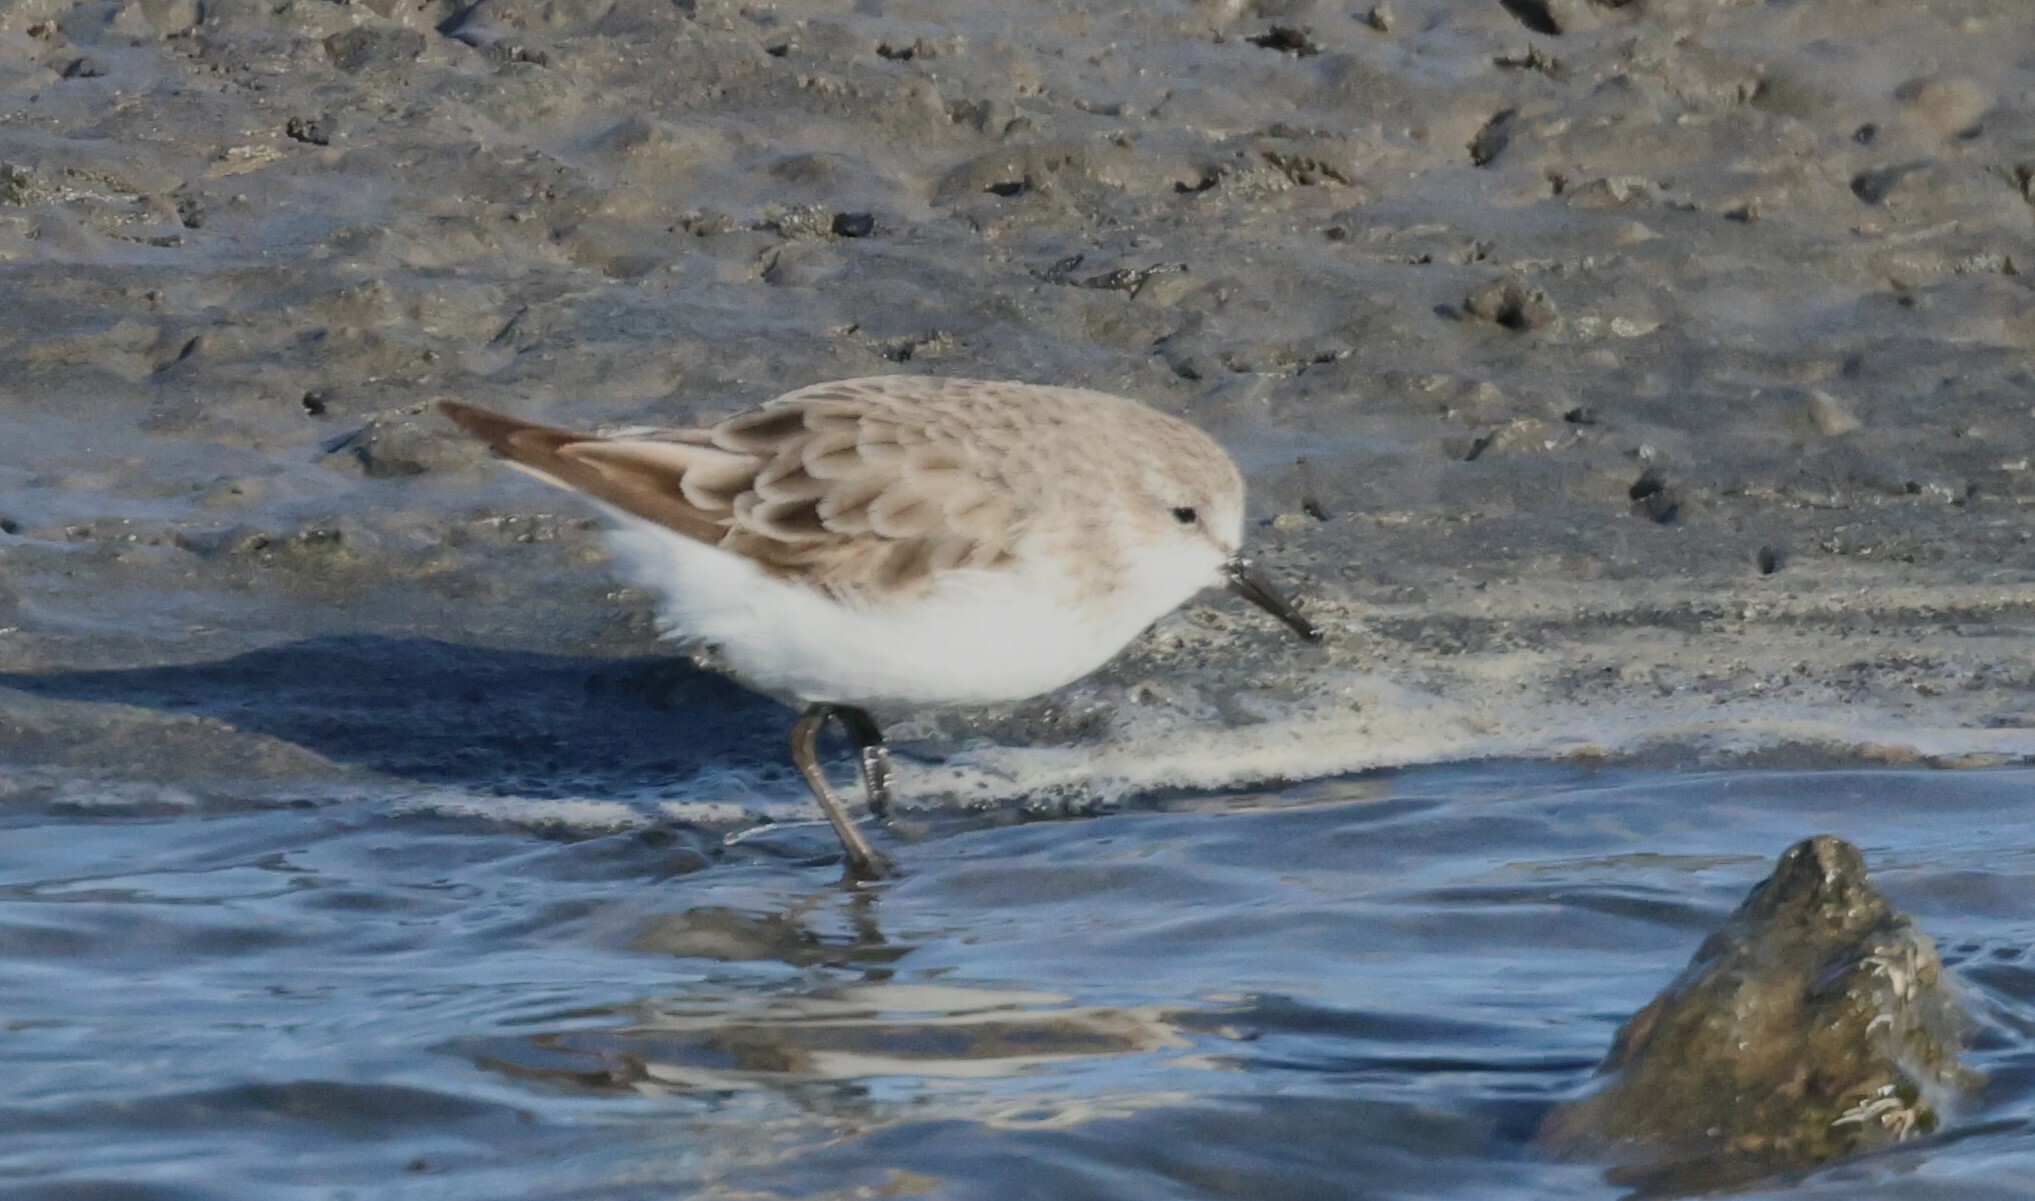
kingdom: Animalia
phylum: Chordata
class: Aves
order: Charadriiformes
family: Scolopacidae
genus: Calidris
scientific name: Calidris minuta
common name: Little stint
